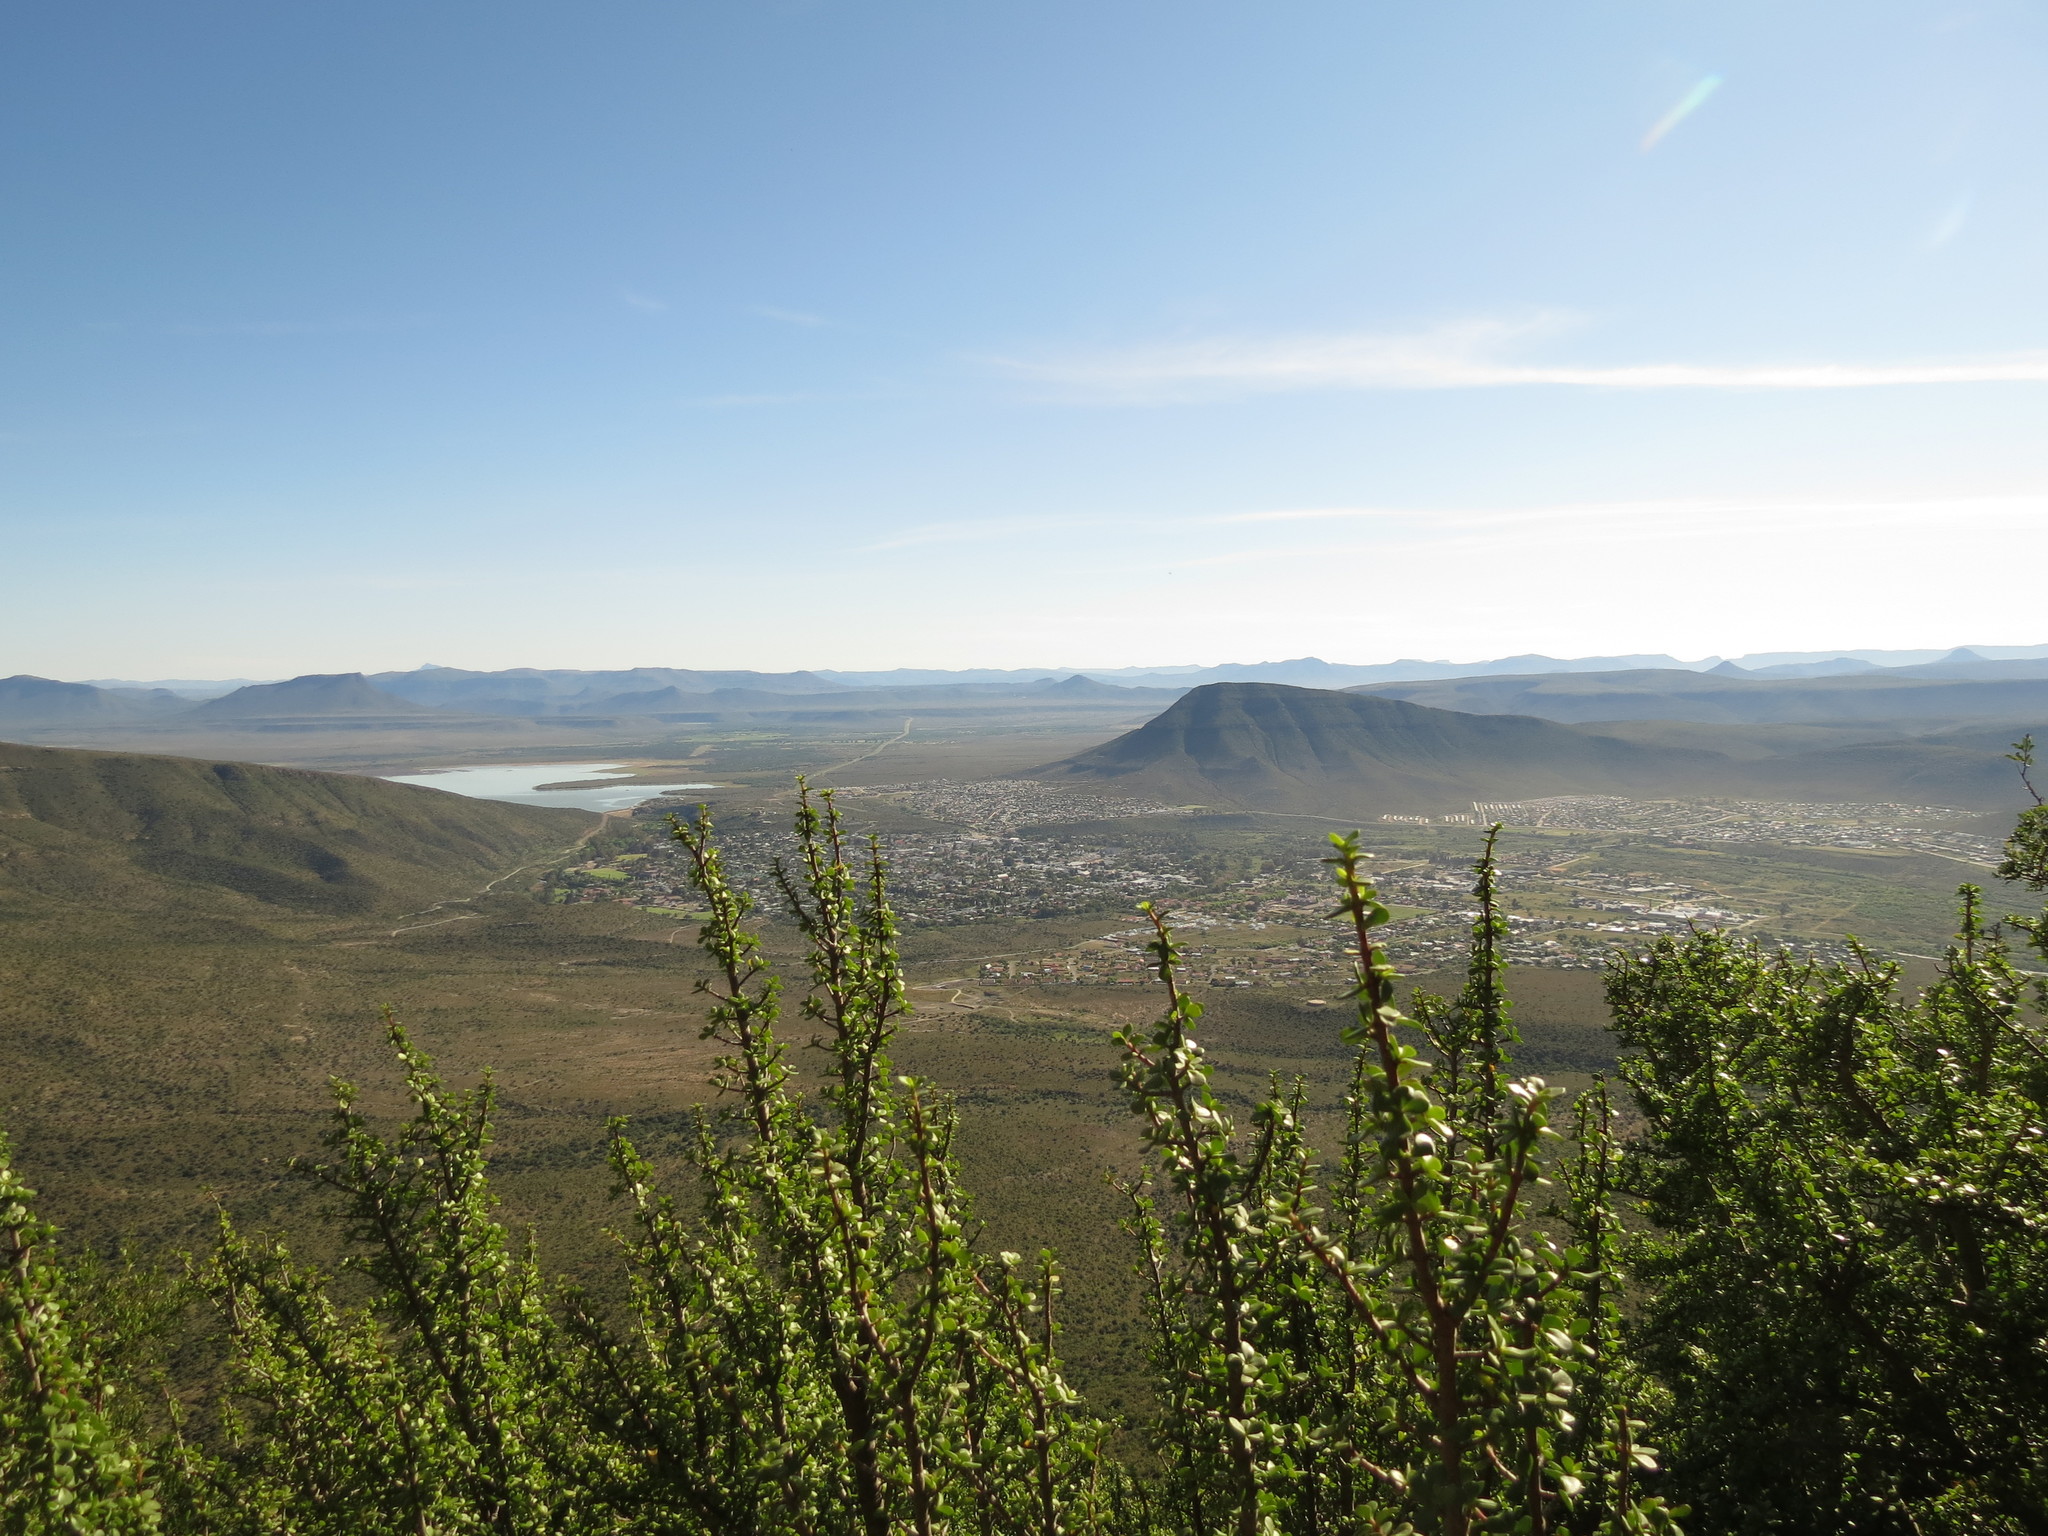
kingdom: Plantae
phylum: Tracheophyta
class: Magnoliopsida
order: Caryophyllales
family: Didiereaceae
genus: Portulacaria
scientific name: Portulacaria afra
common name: Elephant-bush
